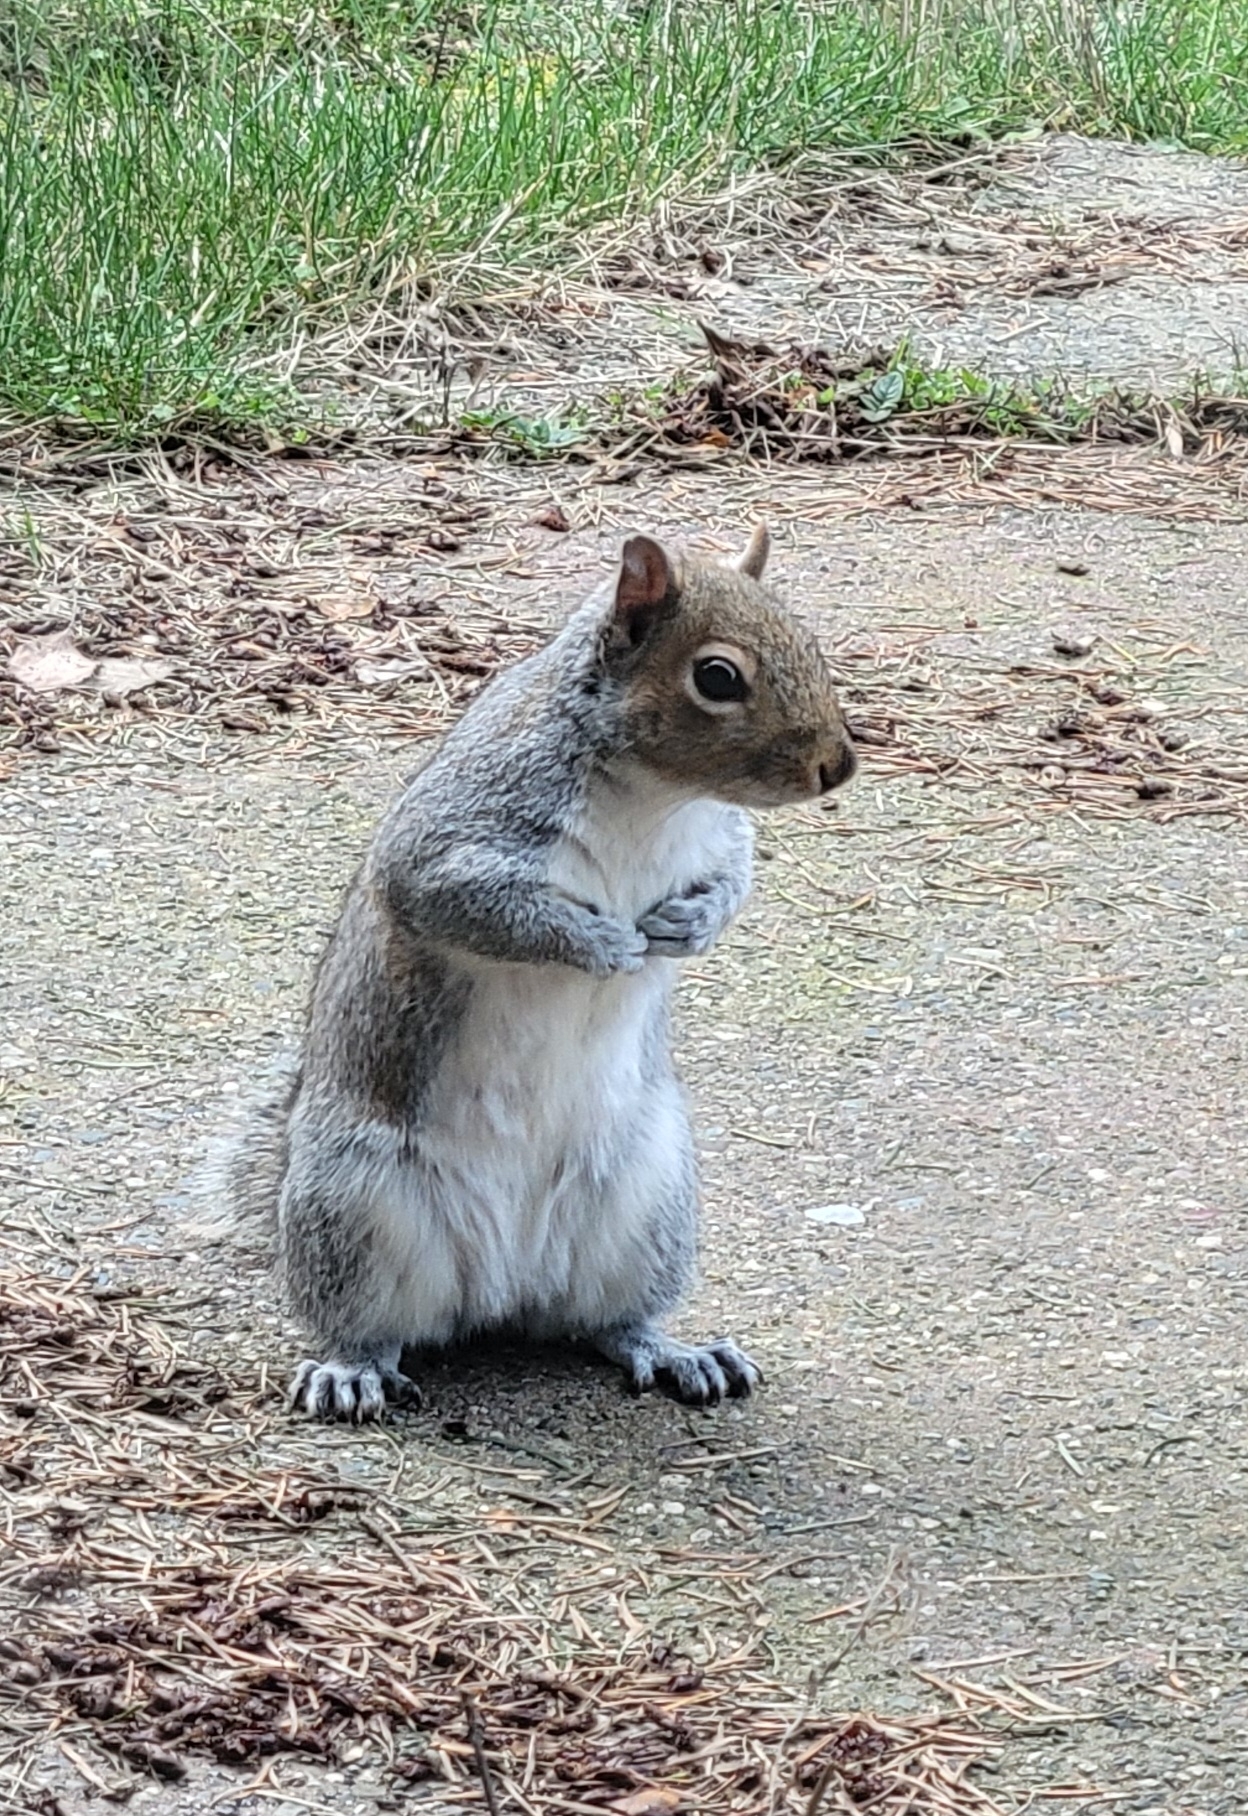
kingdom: Animalia
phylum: Chordata
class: Mammalia
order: Rodentia
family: Sciuridae
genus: Sciurus
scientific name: Sciurus carolinensis
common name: Eastern gray squirrel
